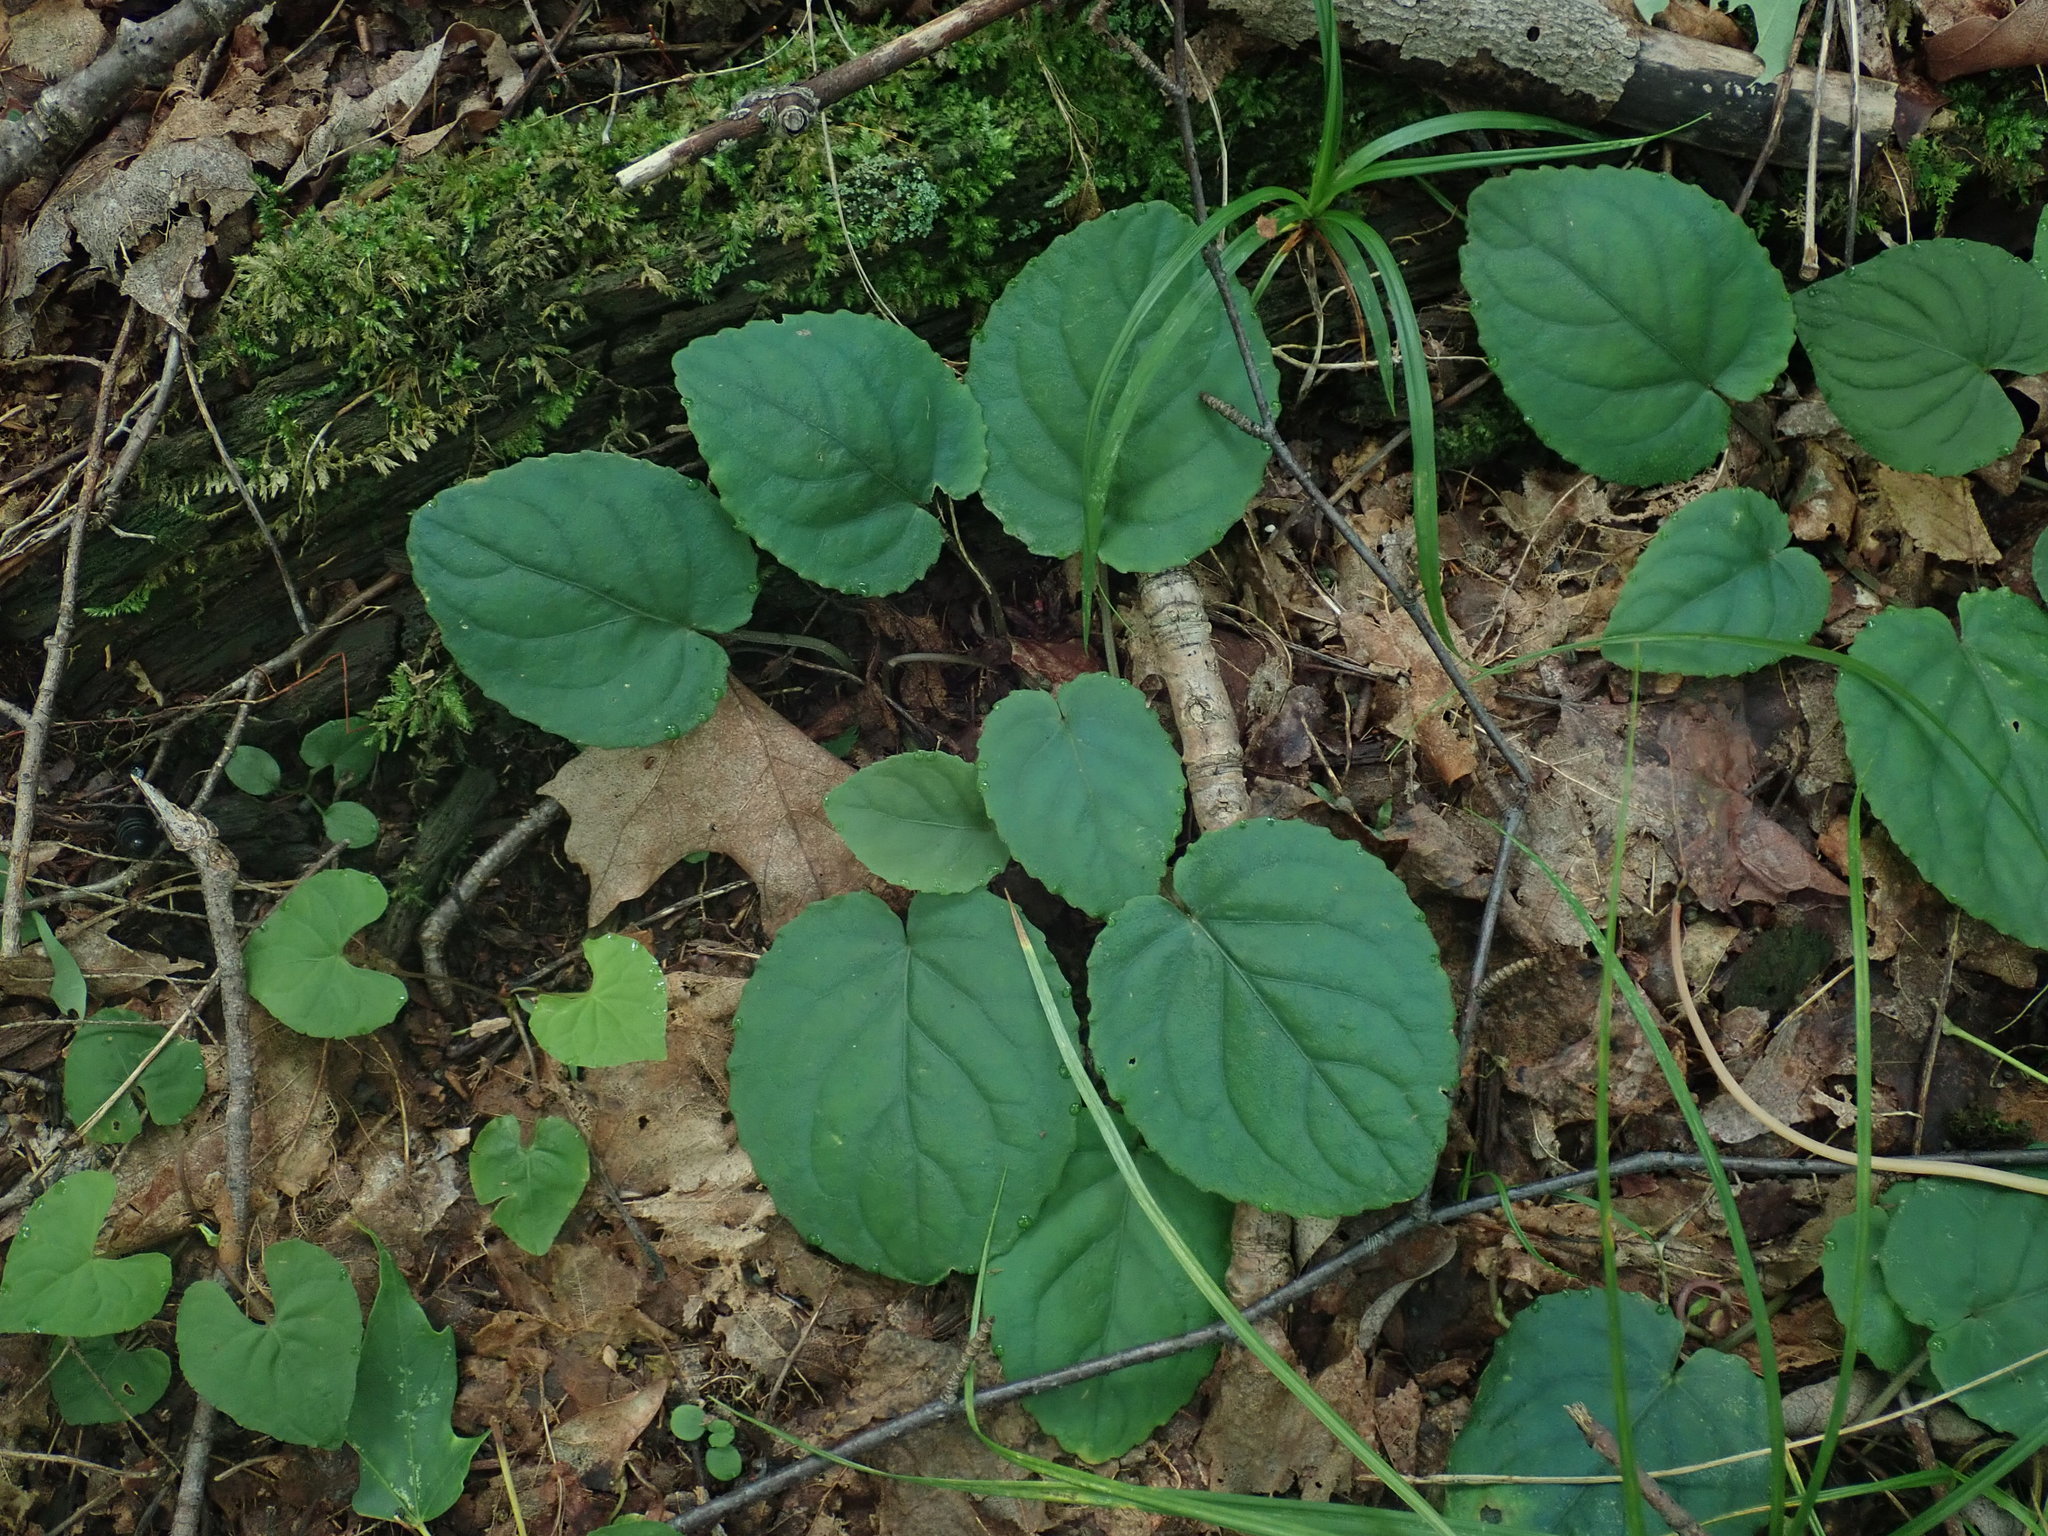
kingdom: Plantae
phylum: Tracheophyta
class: Magnoliopsida
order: Malpighiales
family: Violaceae
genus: Viola
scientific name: Viola rotundifolia
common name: Early yellow violet
